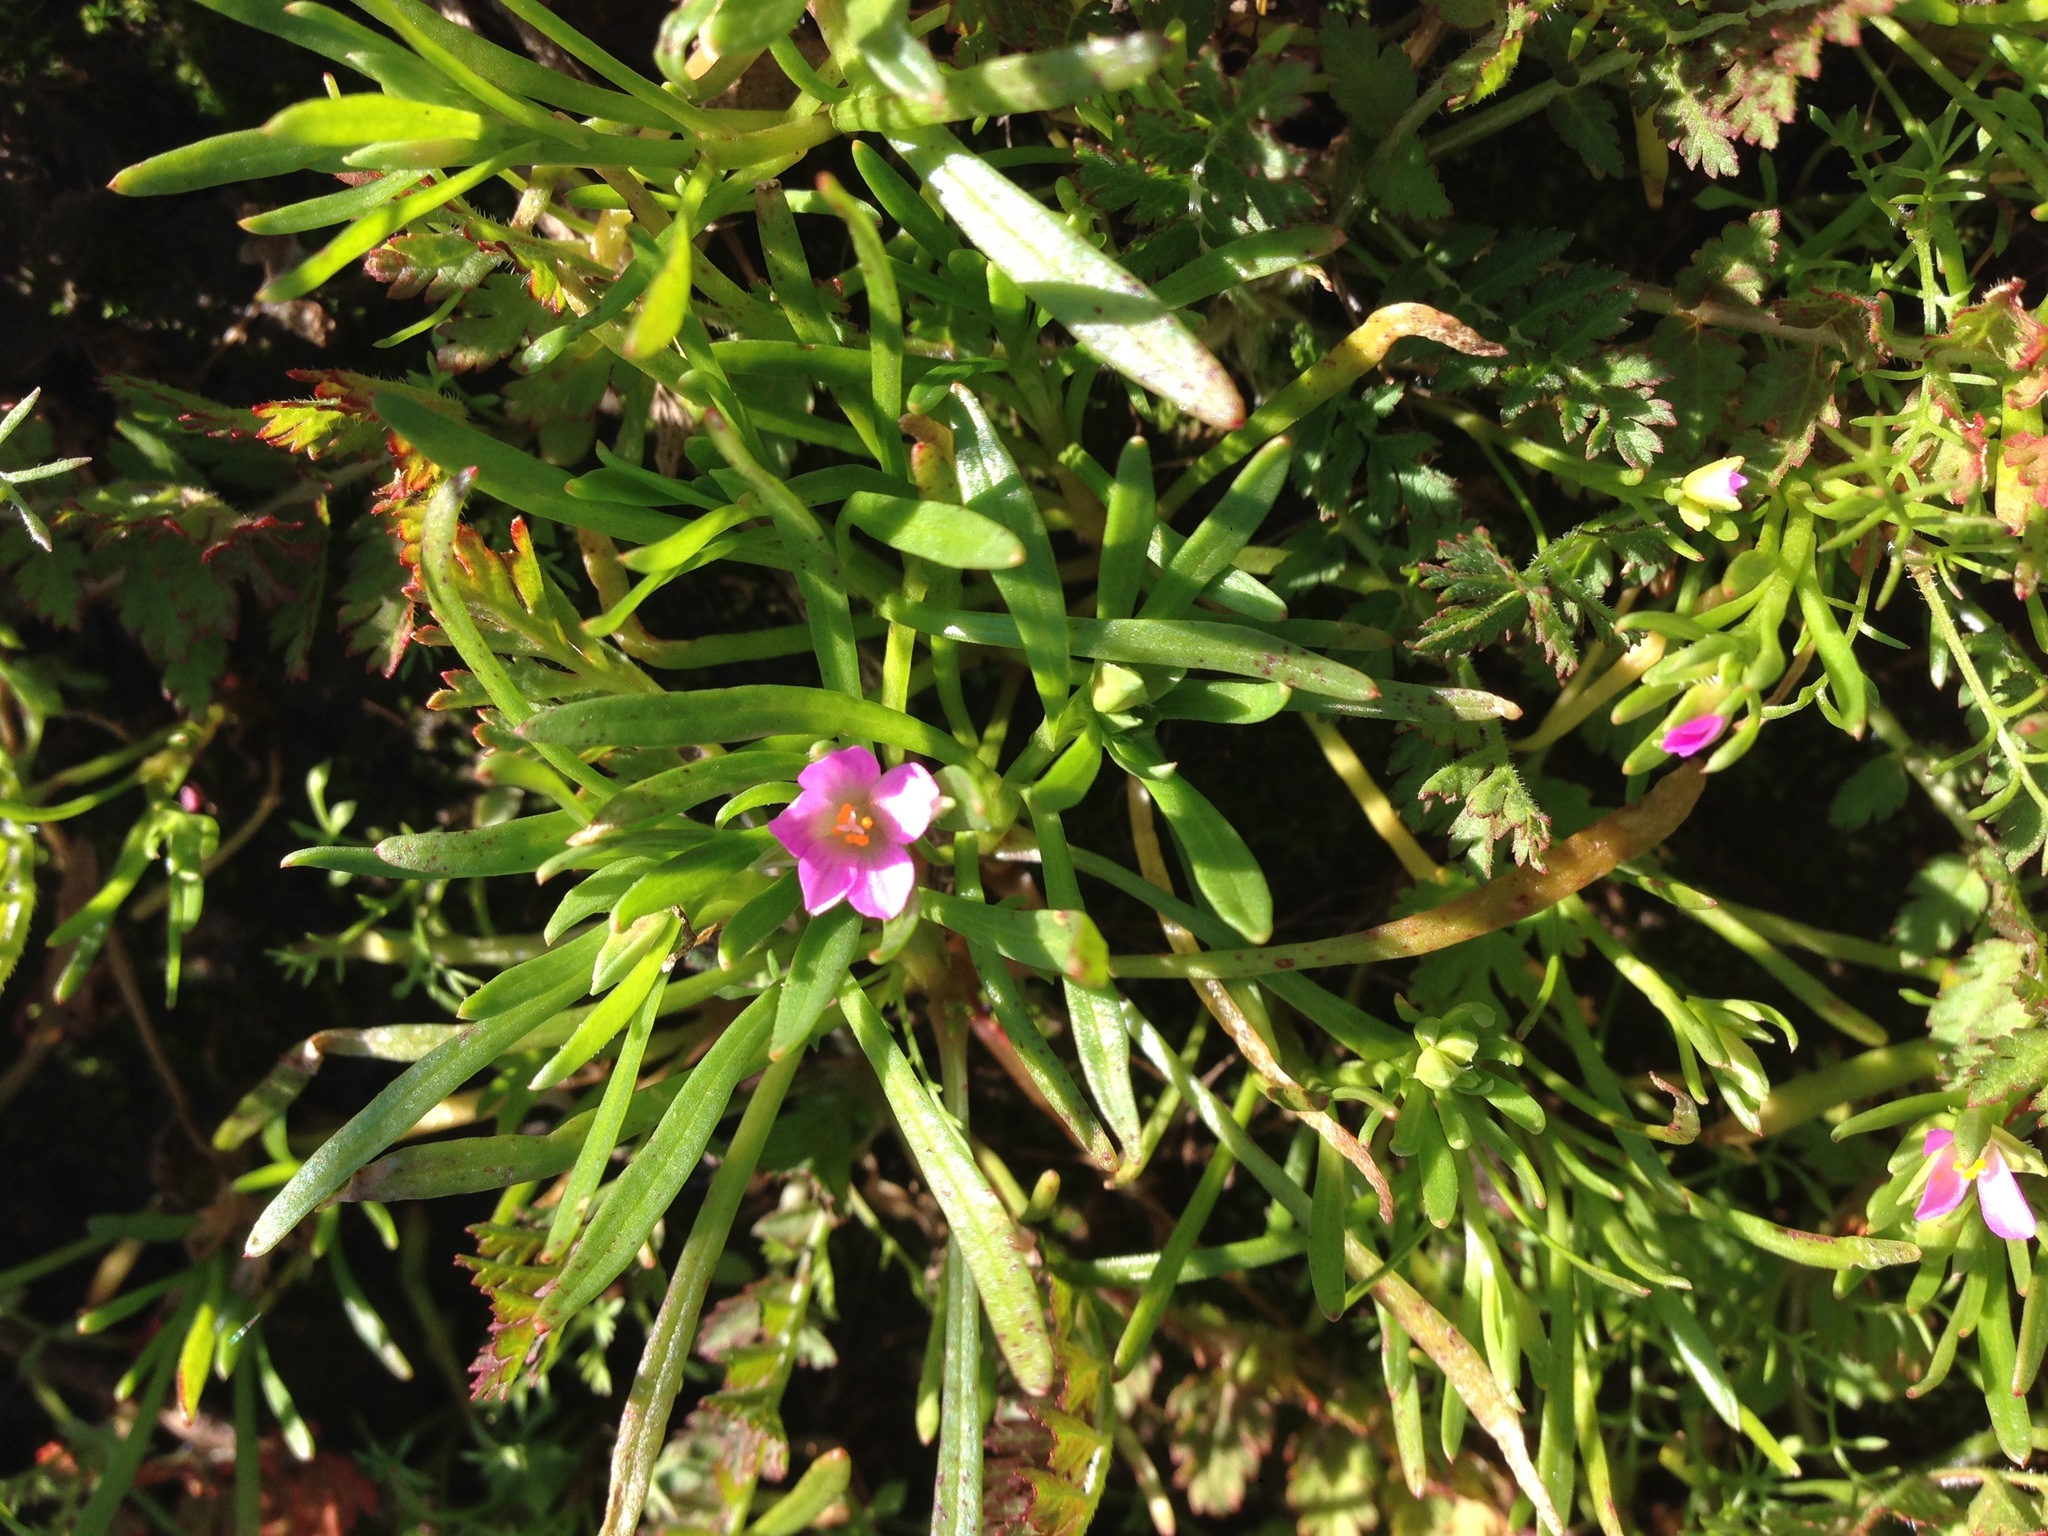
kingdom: Plantae
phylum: Tracheophyta
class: Magnoliopsida
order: Caryophyllales
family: Montiaceae
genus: Calandrinia
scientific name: Calandrinia menziesii
